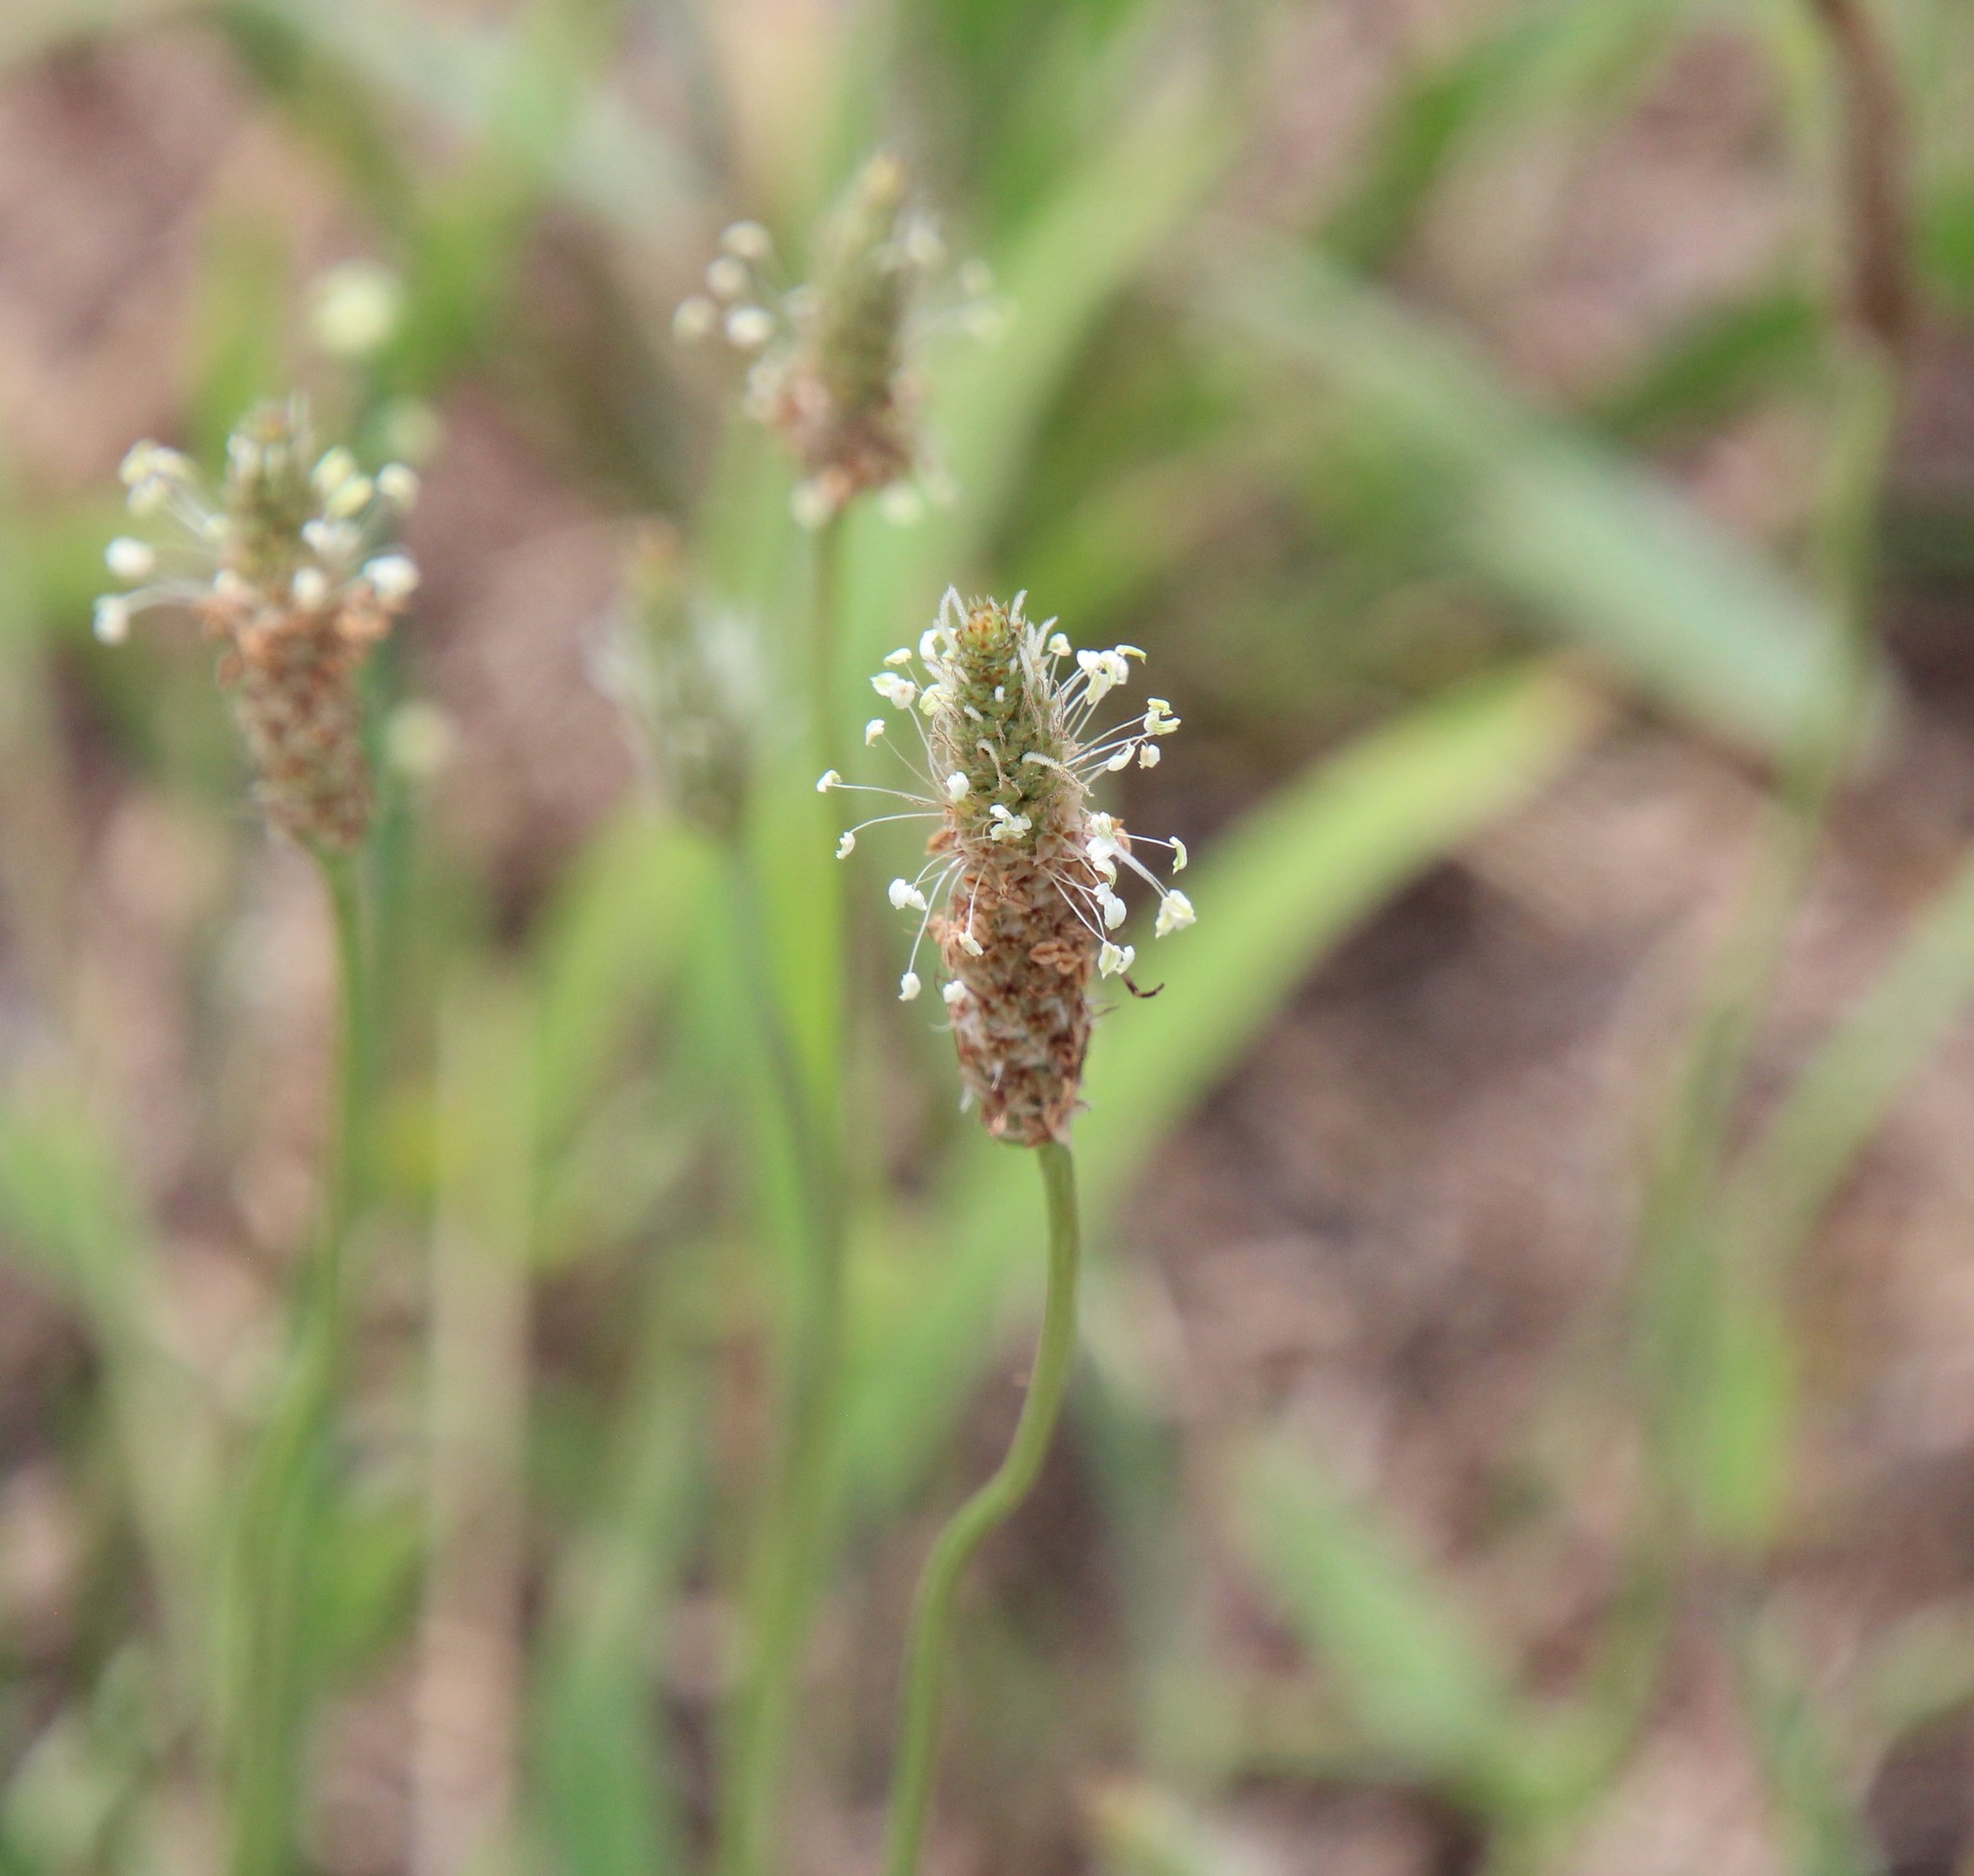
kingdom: Plantae
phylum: Tracheophyta
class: Magnoliopsida
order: Lamiales
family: Plantaginaceae
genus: Plantago
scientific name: Plantago lanceolata
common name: Ribwort plantain
